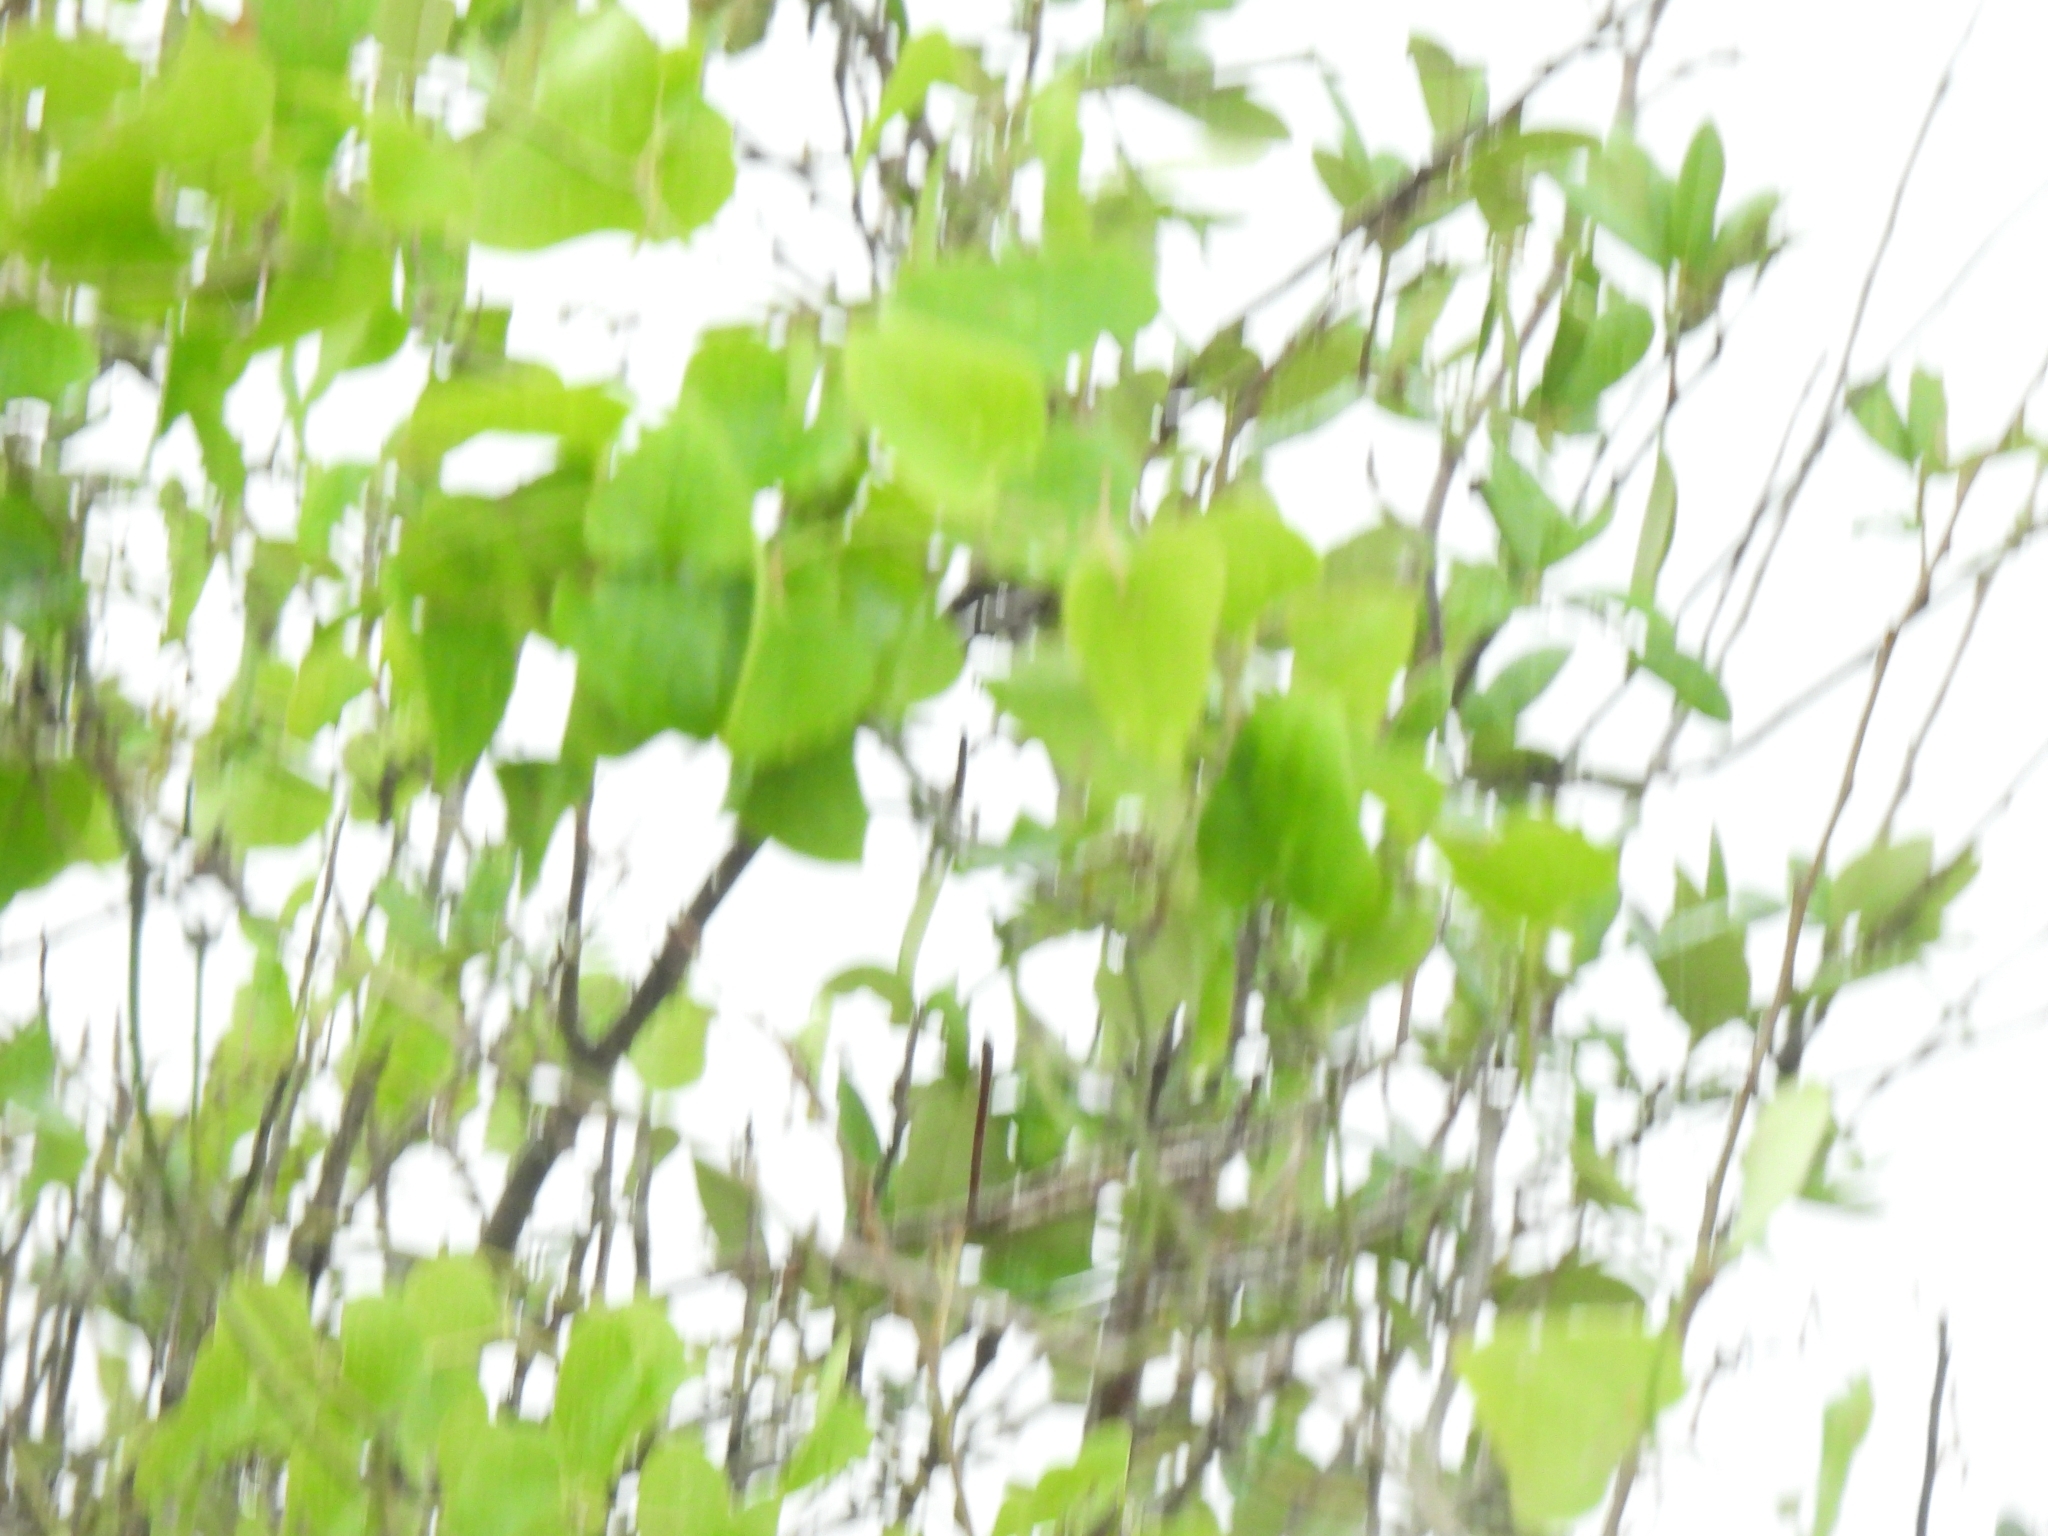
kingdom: Plantae
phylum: Tracheophyta
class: Magnoliopsida
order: Fabales
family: Fabaceae
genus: Erythrina
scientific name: Erythrina herbacea
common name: Coral-bean
